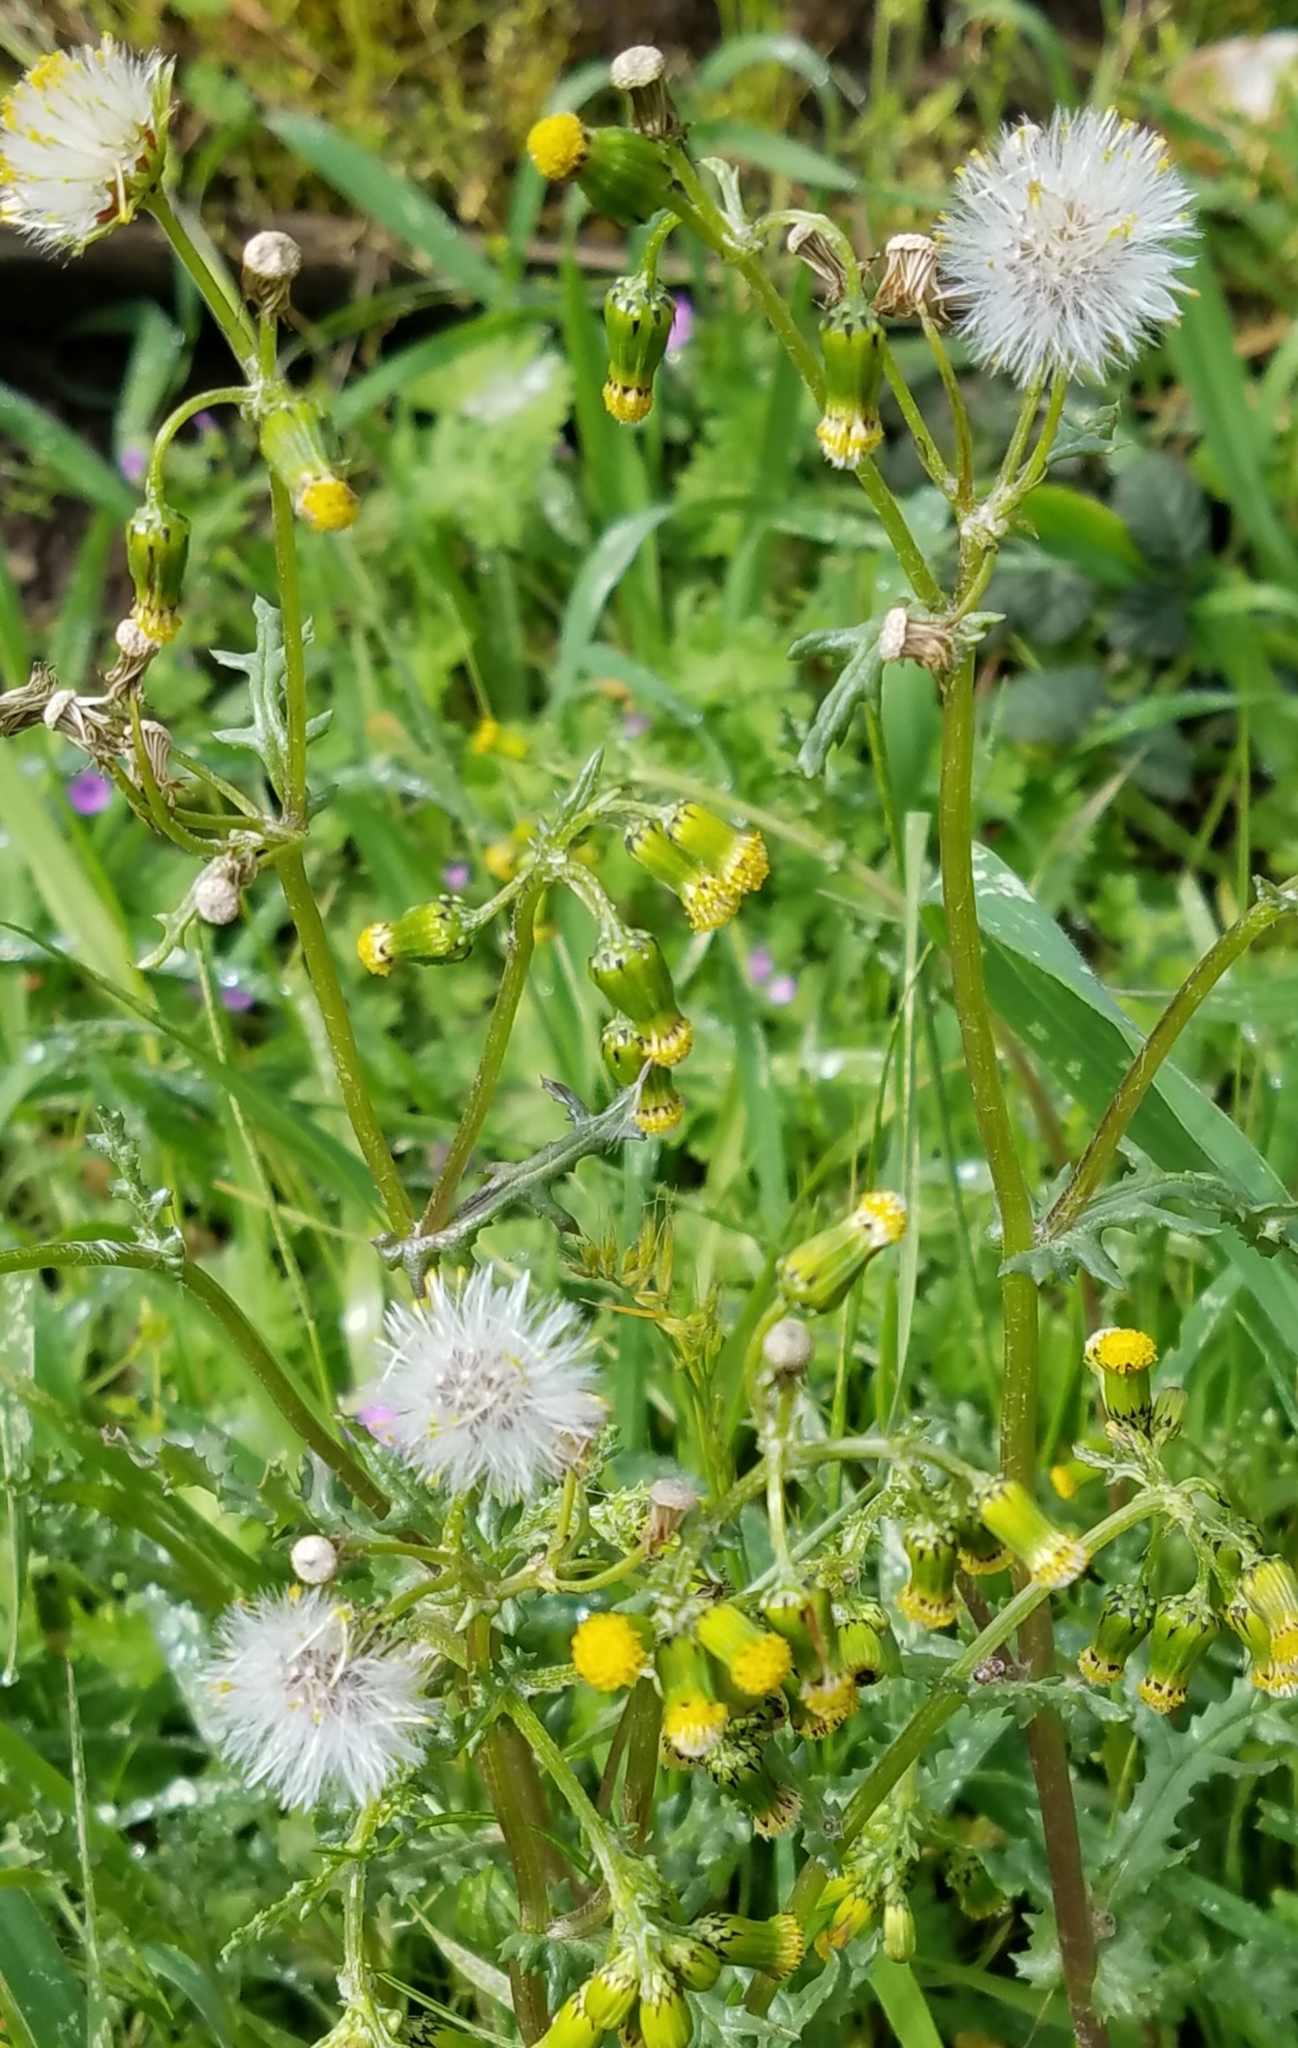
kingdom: Plantae
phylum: Tracheophyta
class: Magnoliopsida
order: Asterales
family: Asteraceae
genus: Senecio
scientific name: Senecio vulgaris
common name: Old-man-in-the-spring
